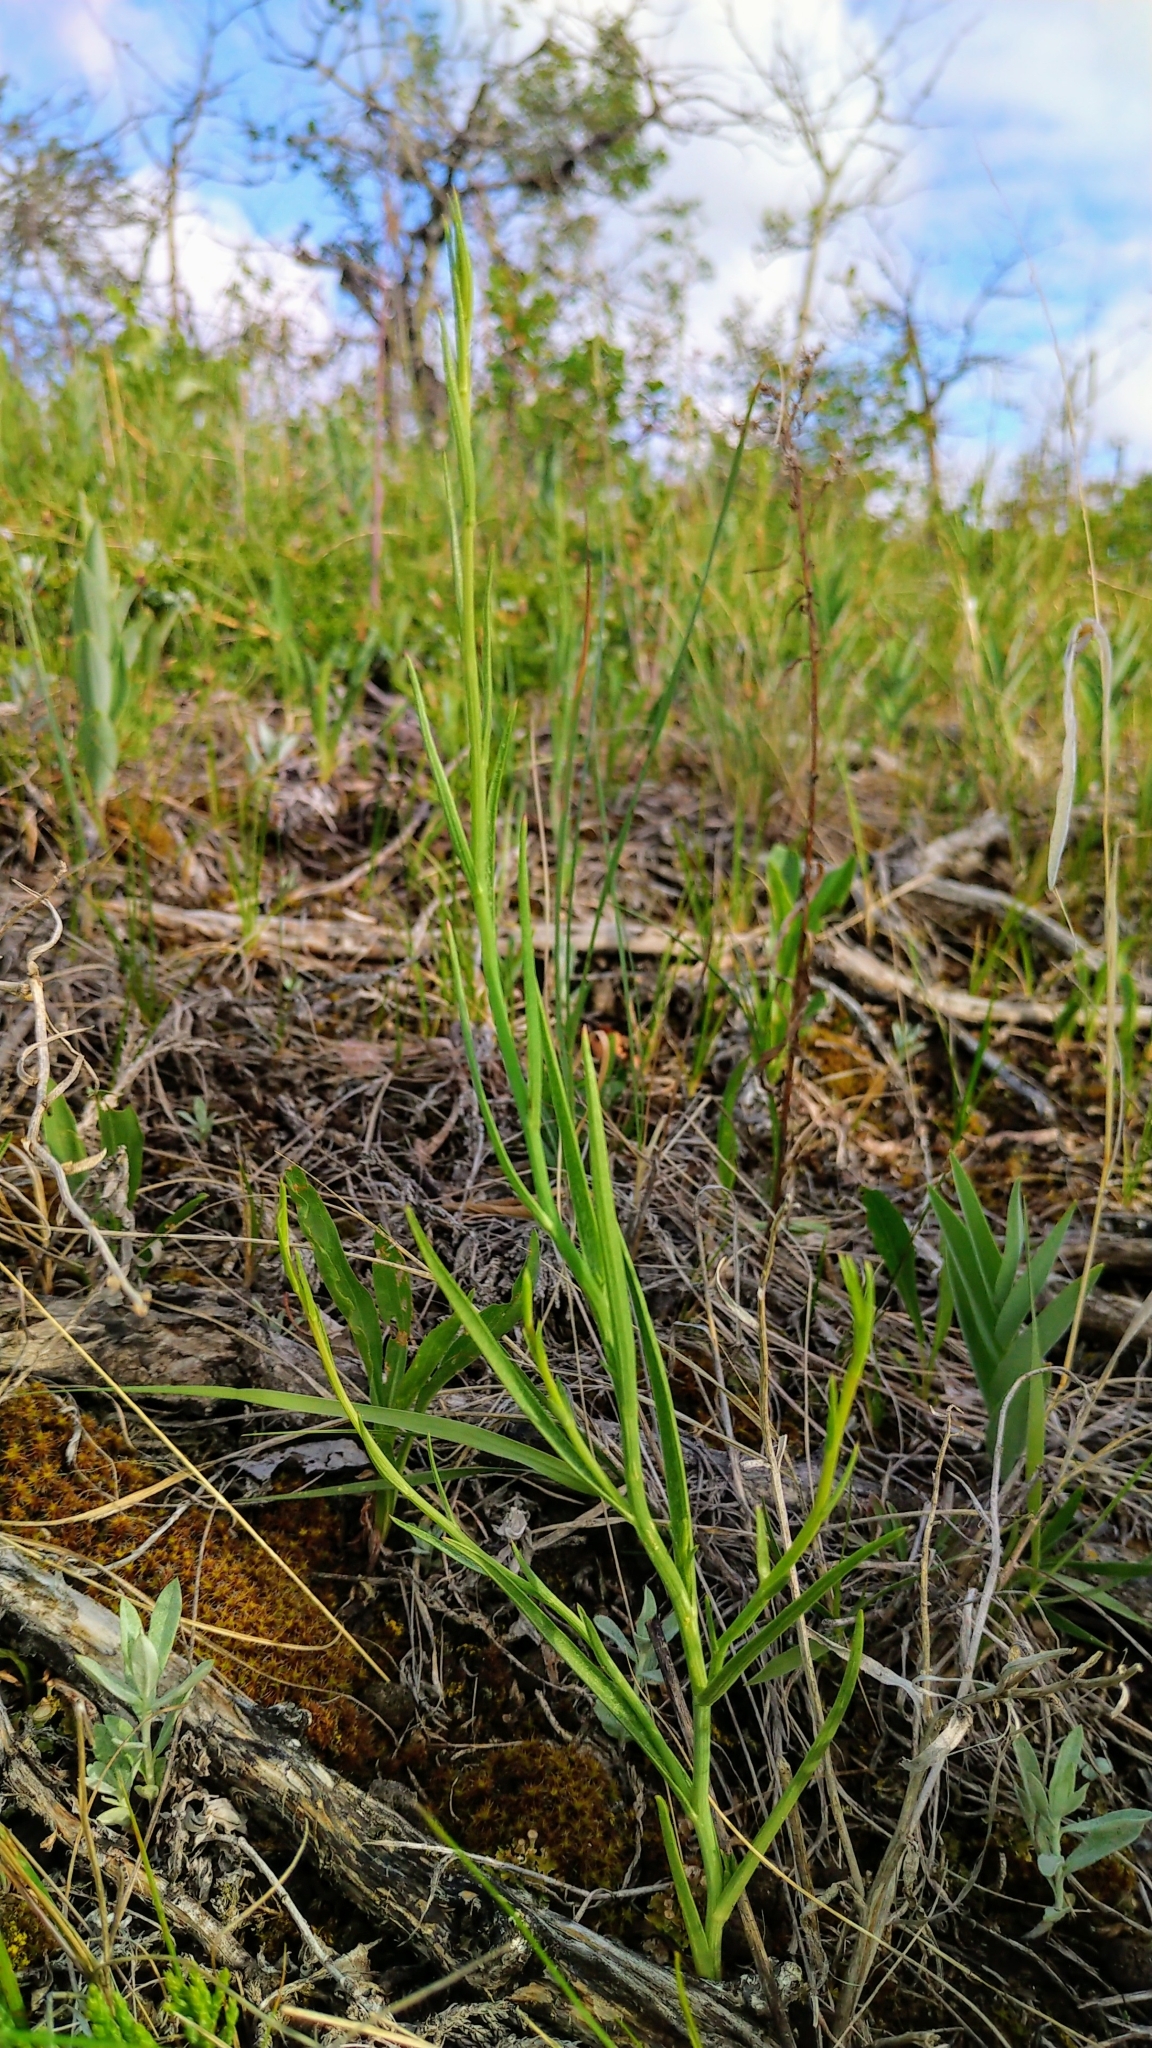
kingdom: Plantae
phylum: Tracheophyta
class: Magnoliopsida
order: Asterales
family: Asteraceae
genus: Lygodesmia
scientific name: Lygodesmia juncea
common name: Common skeletonweed
